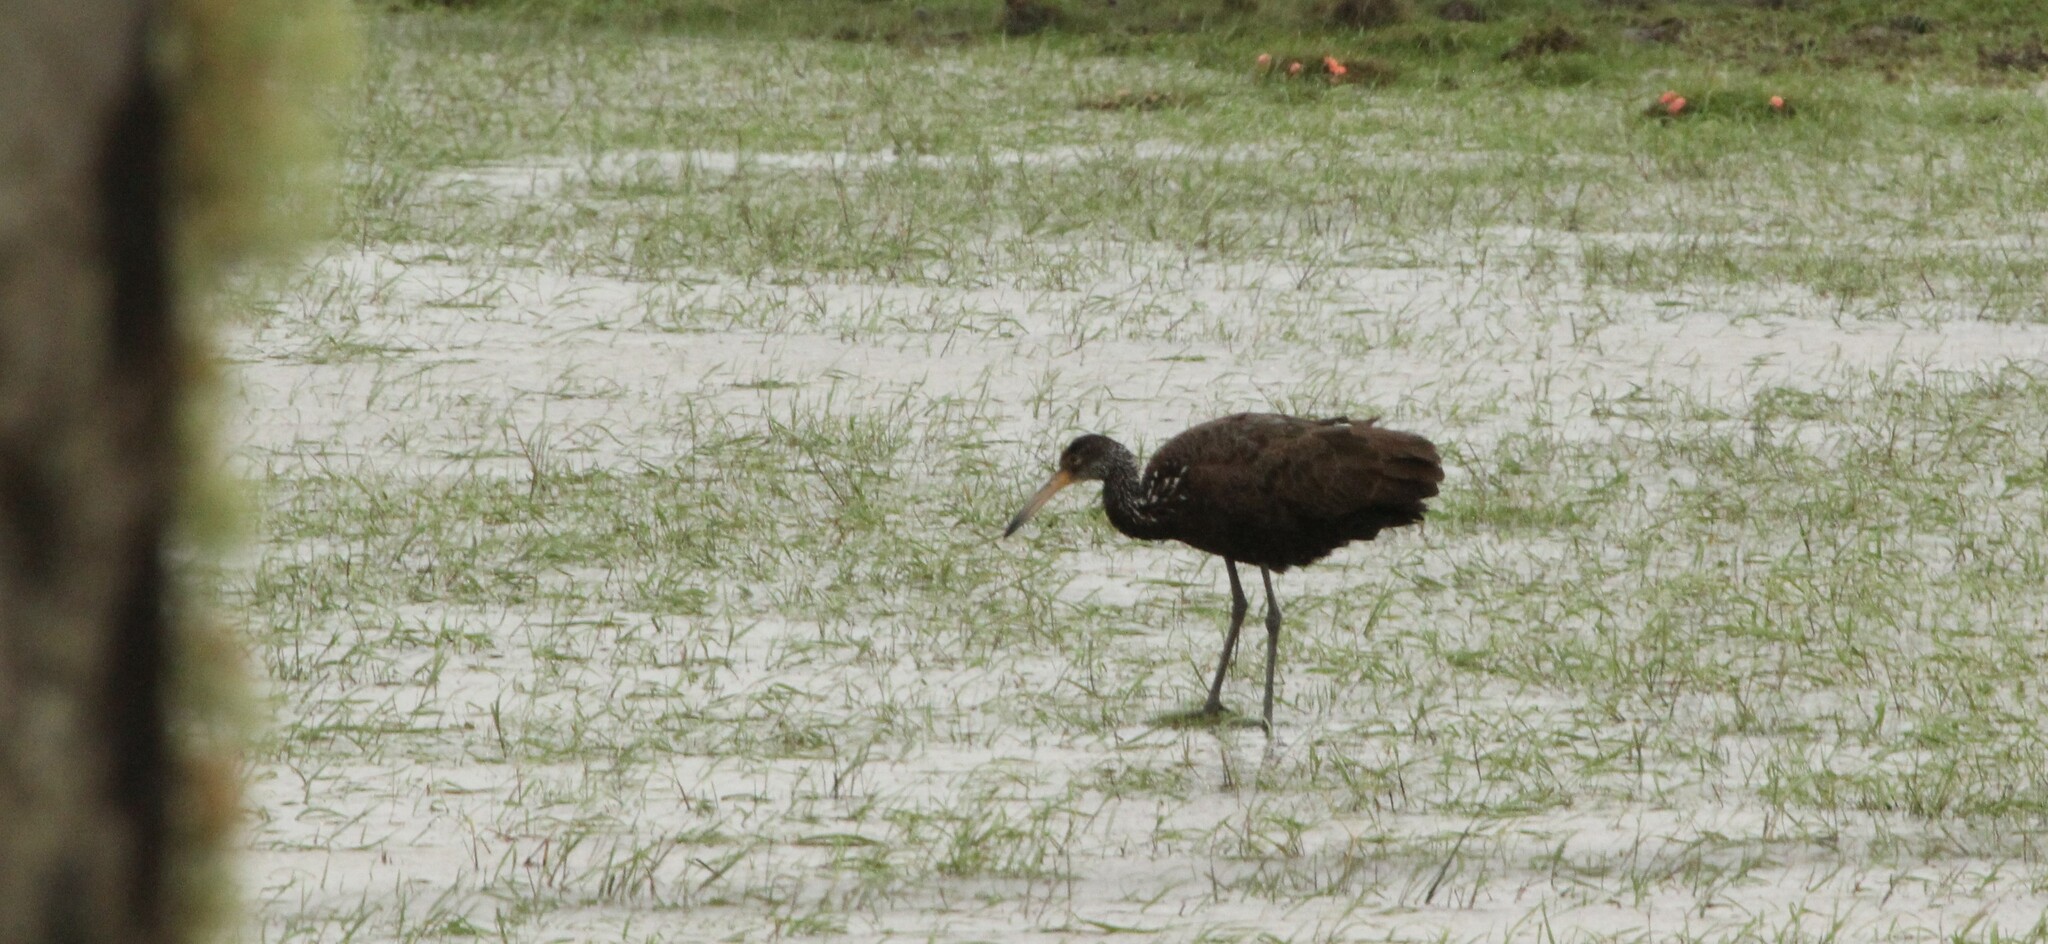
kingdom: Animalia
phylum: Chordata
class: Aves
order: Gruiformes
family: Aramidae
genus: Aramus
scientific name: Aramus guarauna
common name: Limpkin
